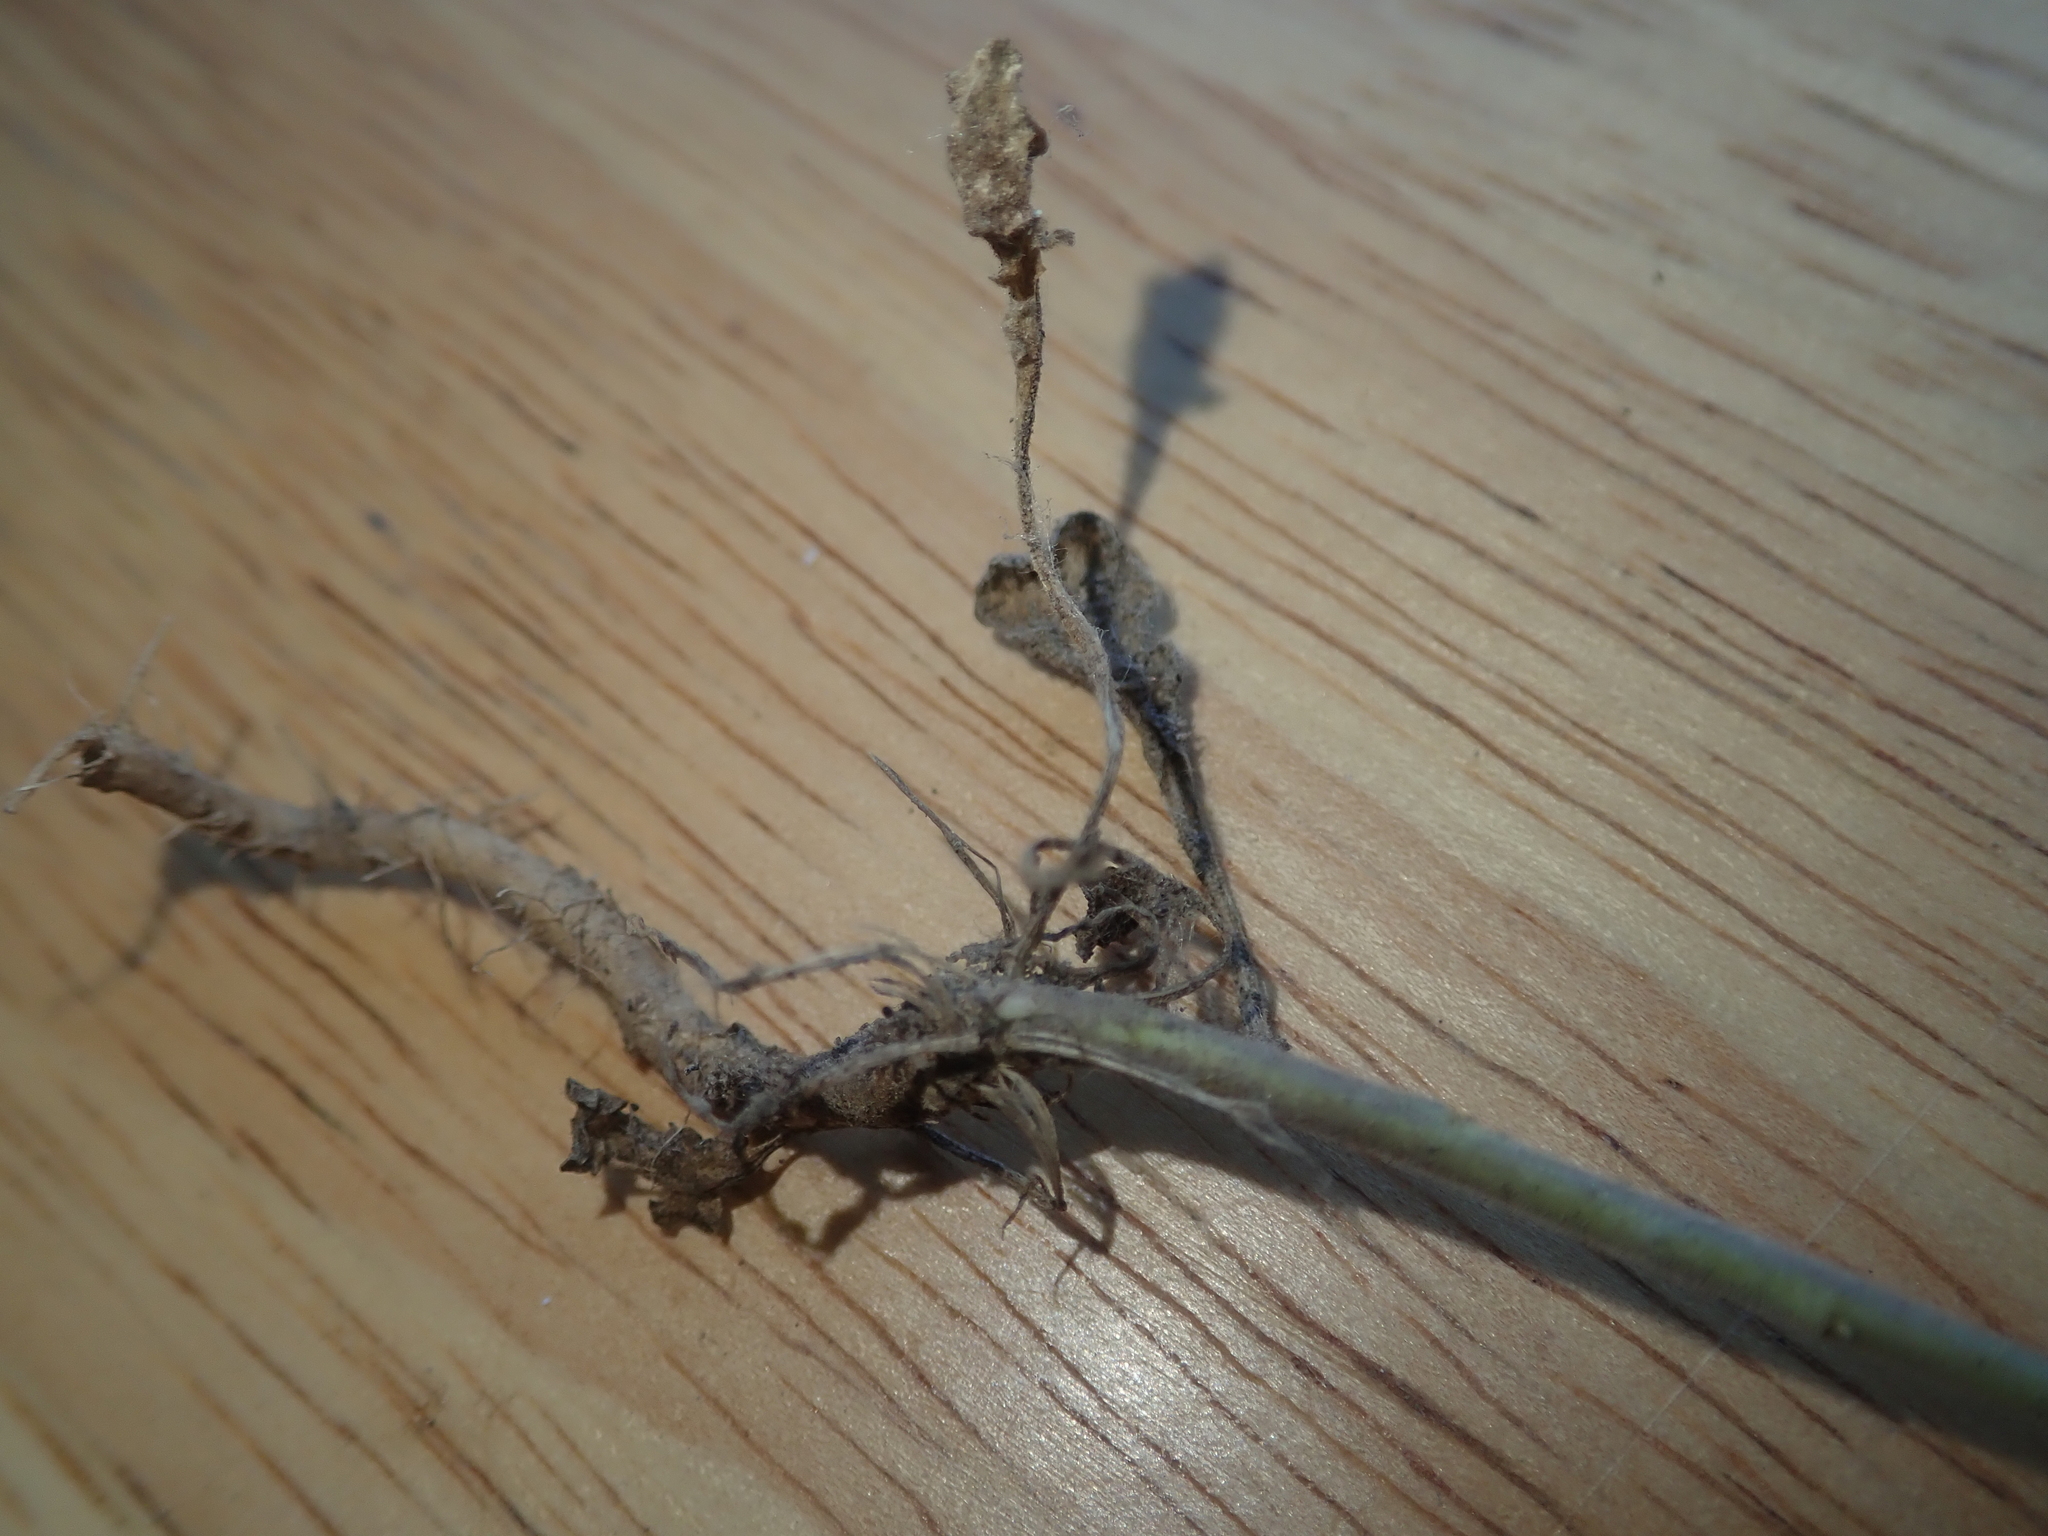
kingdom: Plantae
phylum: Tracheophyta
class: Magnoliopsida
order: Brassicales
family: Brassicaceae
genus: Lepidium
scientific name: Lepidium campestre
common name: Field pepperwort
